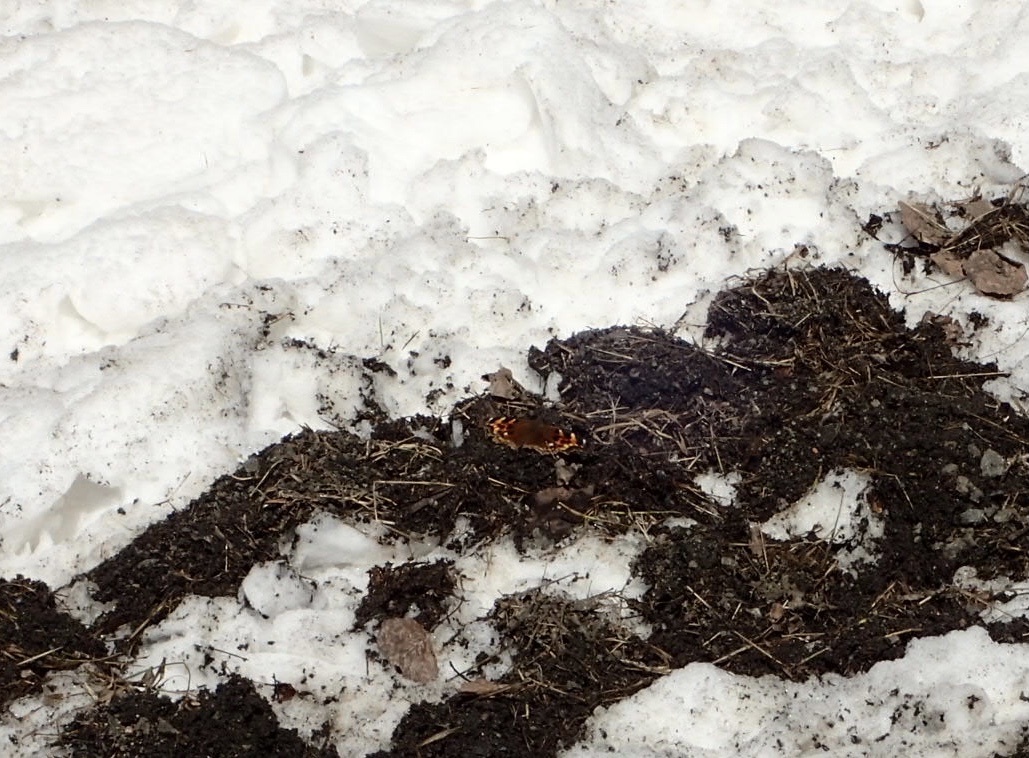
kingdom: Animalia
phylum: Arthropoda
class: Insecta
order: Lepidoptera
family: Nymphalidae
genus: Polygonia
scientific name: Polygonia vaualbum
